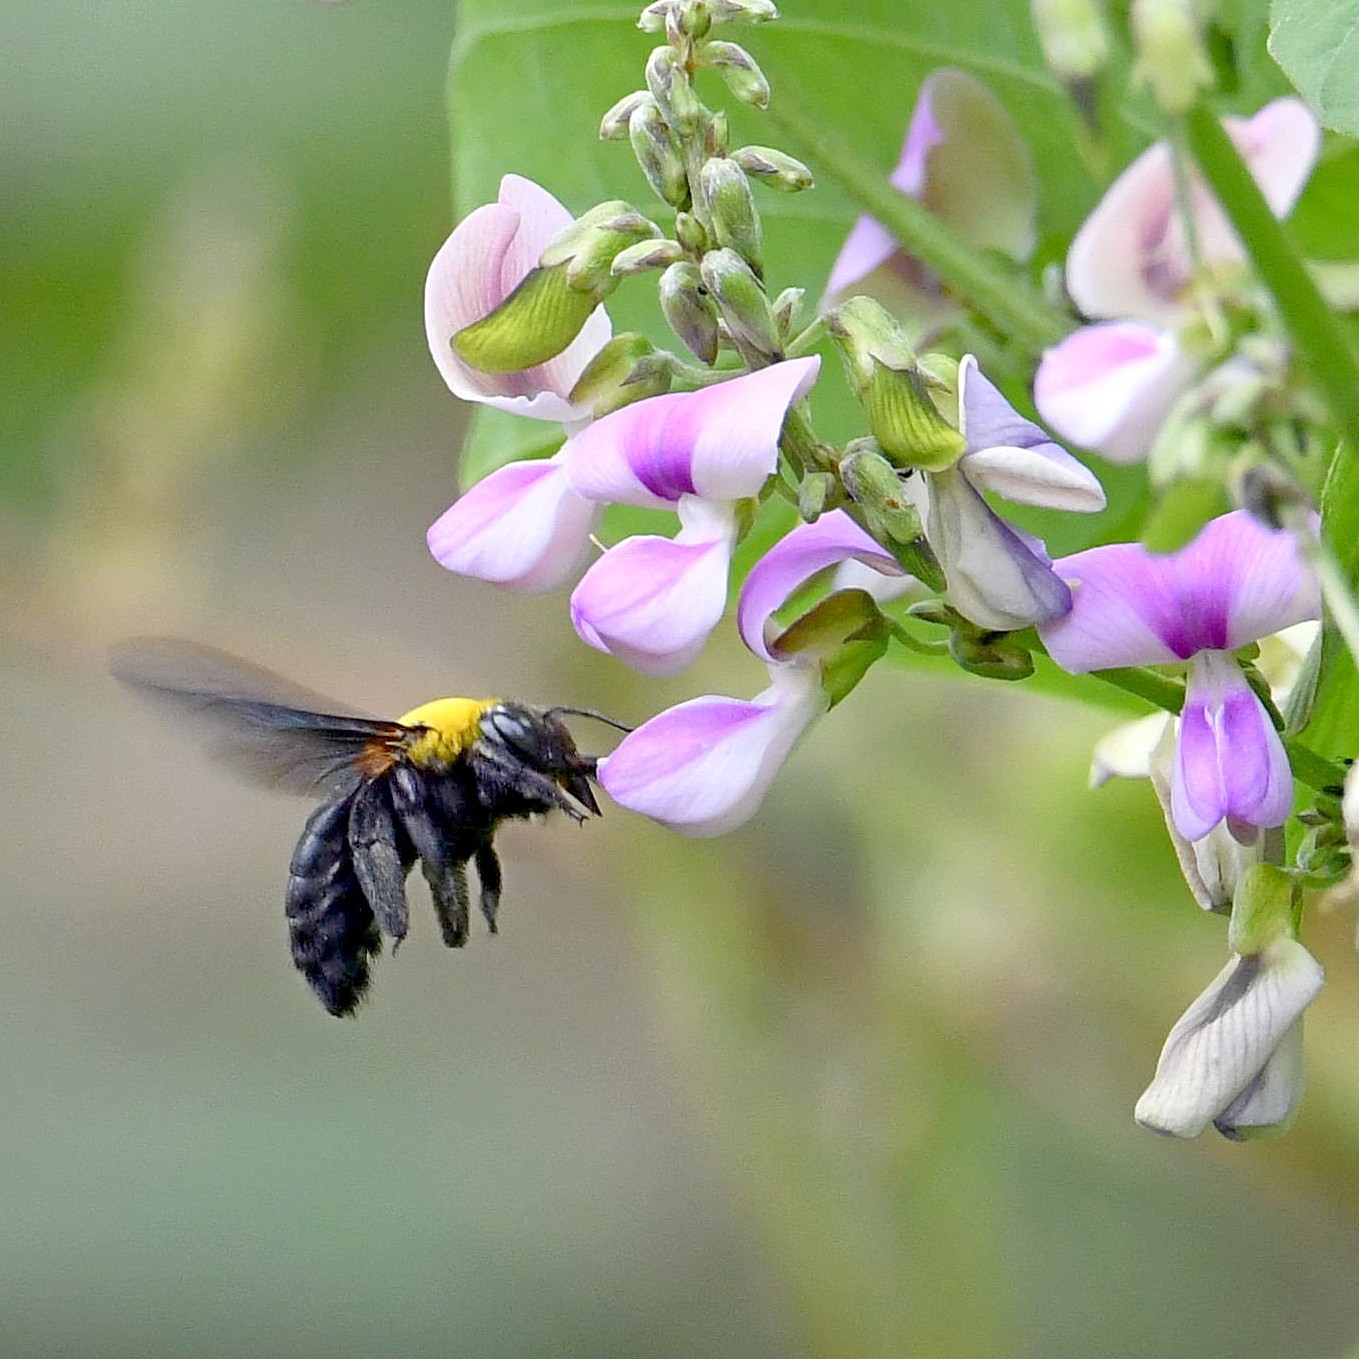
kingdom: Animalia
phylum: Arthropoda
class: Insecta
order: Hymenoptera
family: Apidae
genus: Xylocopa
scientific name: Xylocopa ruficornis
